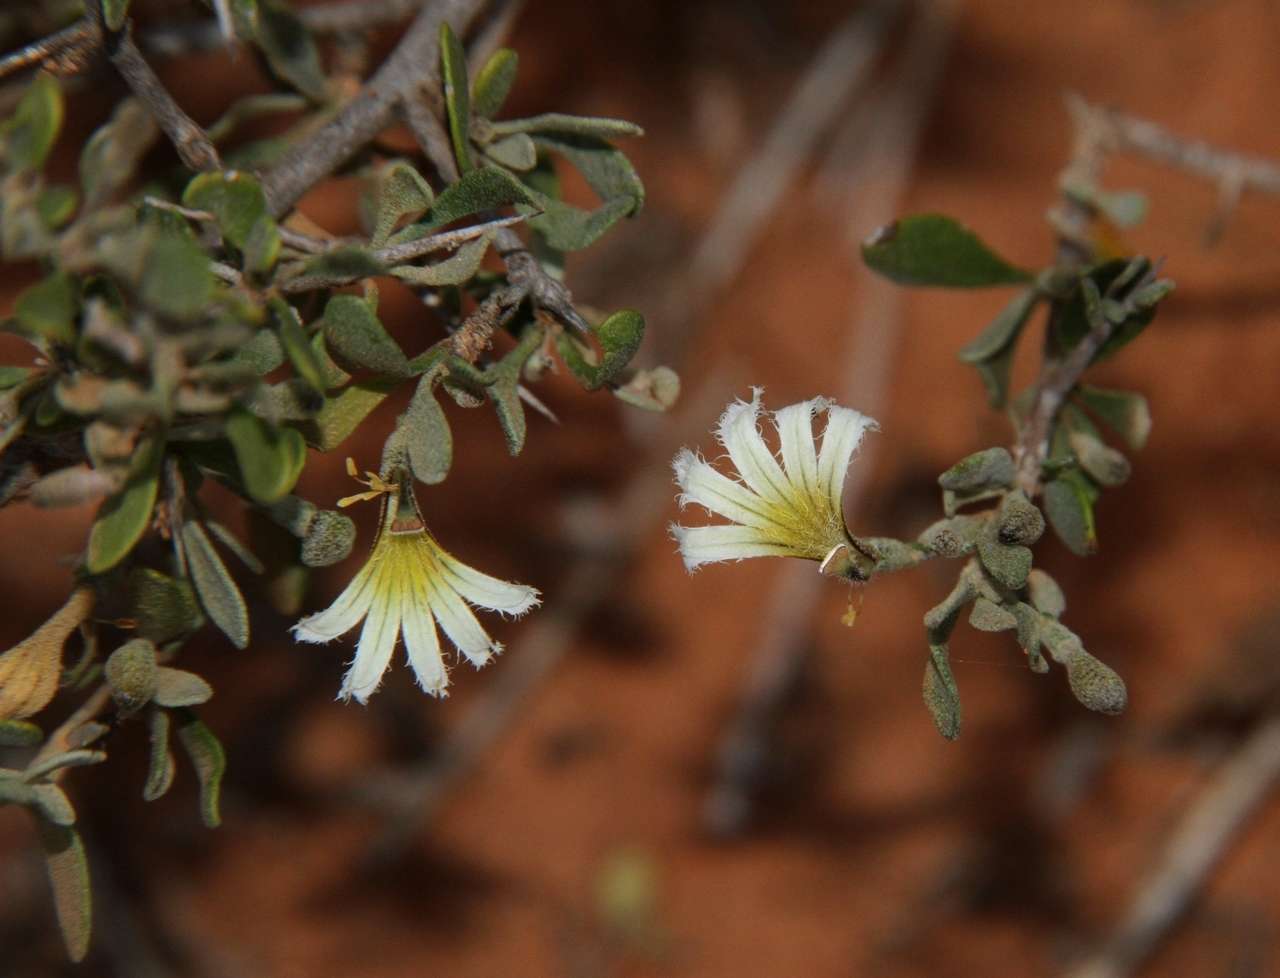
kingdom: Plantae
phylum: Tracheophyta
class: Magnoliopsida
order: Asterales
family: Goodeniaceae
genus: Scaevola
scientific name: Scaevola spinescens
